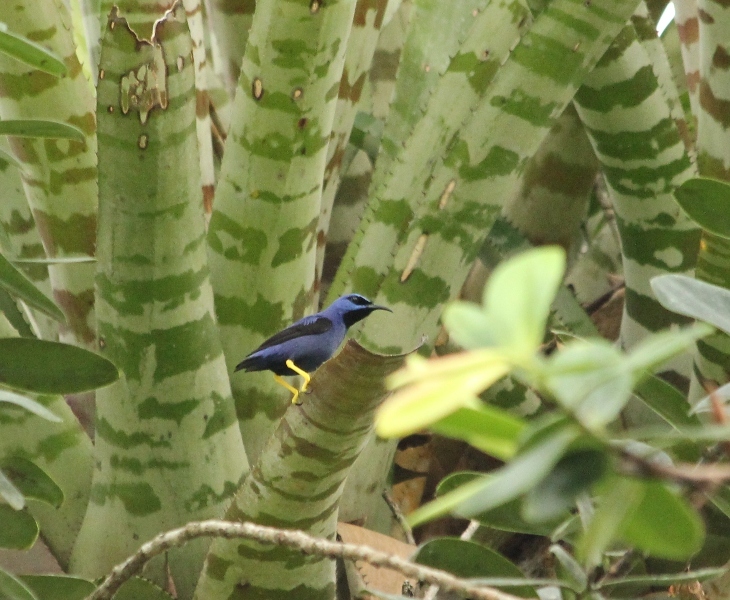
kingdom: Animalia
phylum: Chordata
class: Aves
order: Passeriformes
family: Thraupidae
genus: Cyanerpes
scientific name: Cyanerpes caeruleus
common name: Purple honeycreeper
